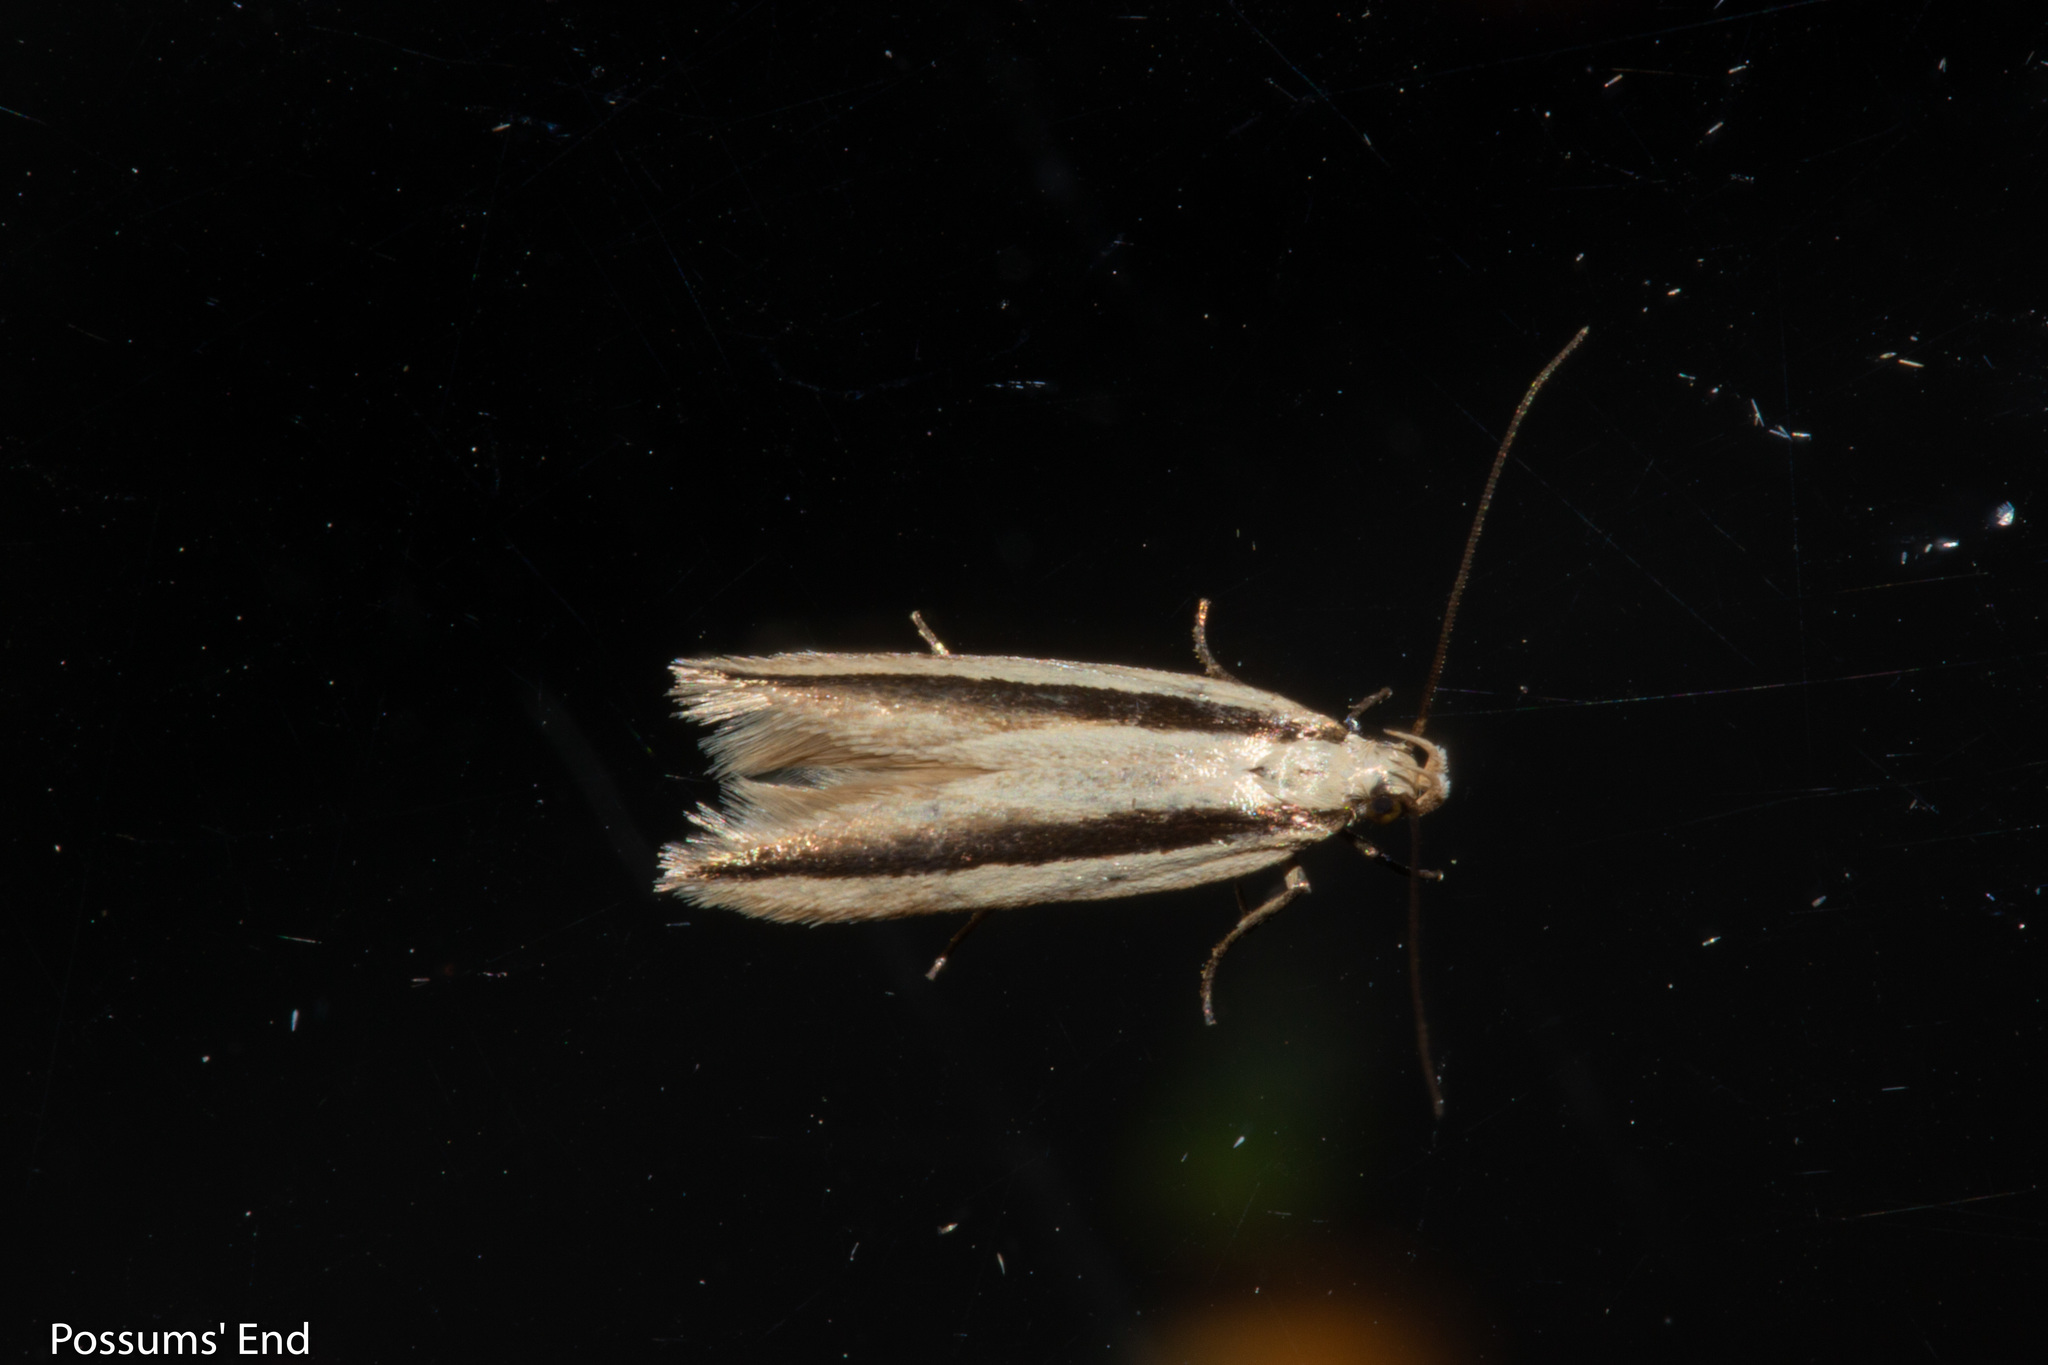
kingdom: Animalia
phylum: Arthropoda
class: Insecta
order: Lepidoptera
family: Gelechiidae
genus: Kiwaia
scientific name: Kiwaia monophragma
